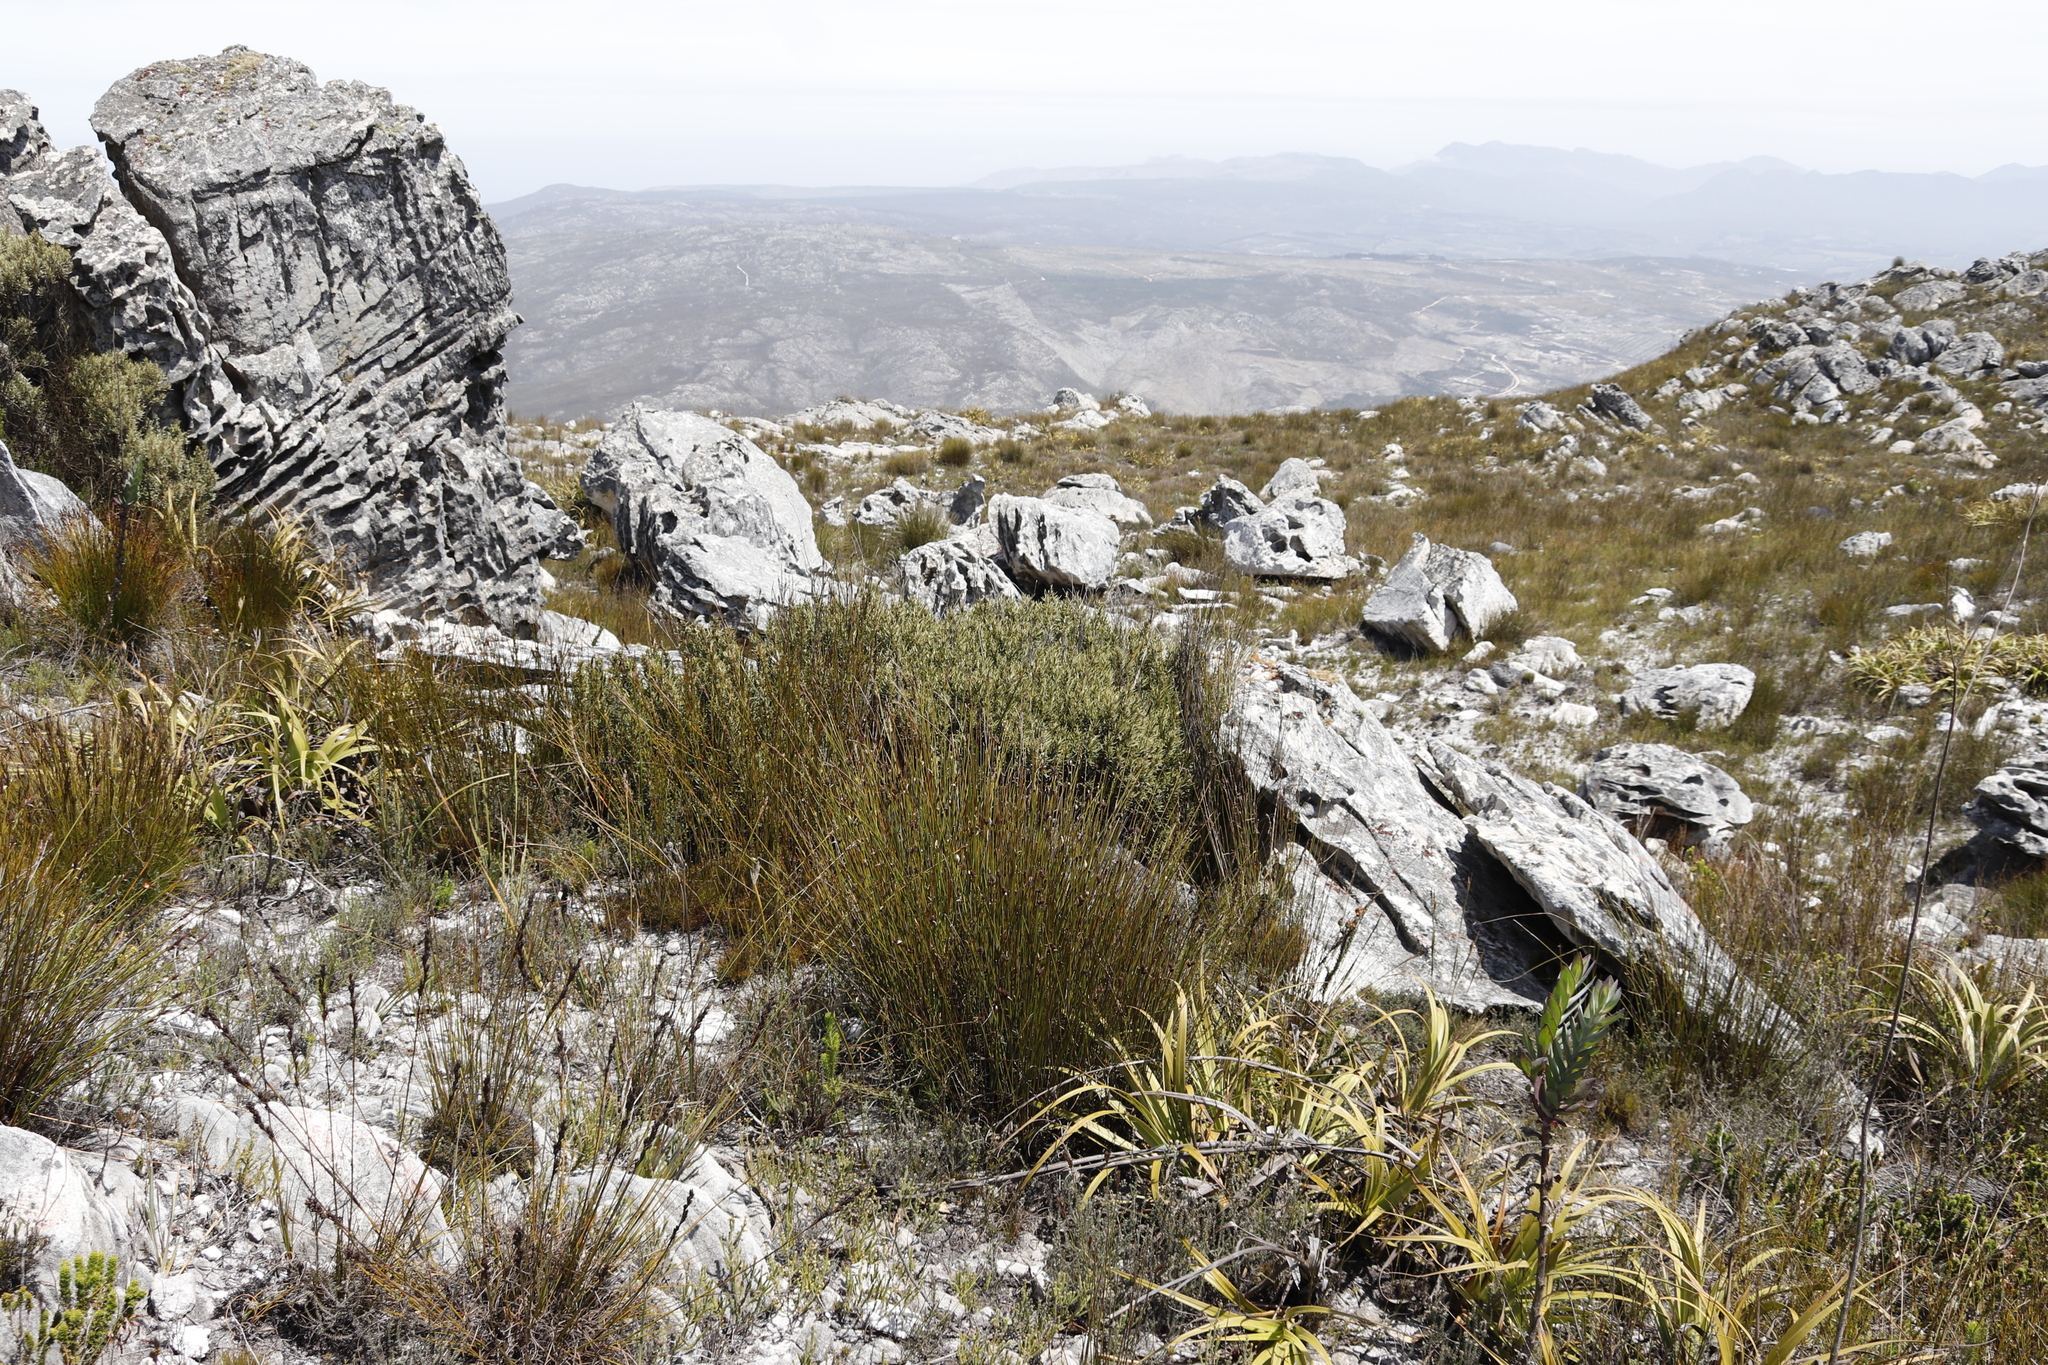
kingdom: Plantae
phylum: Tracheophyta
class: Magnoliopsida
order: Cornales
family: Grubbiaceae
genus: Grubbia
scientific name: Grubbia tomentosa
